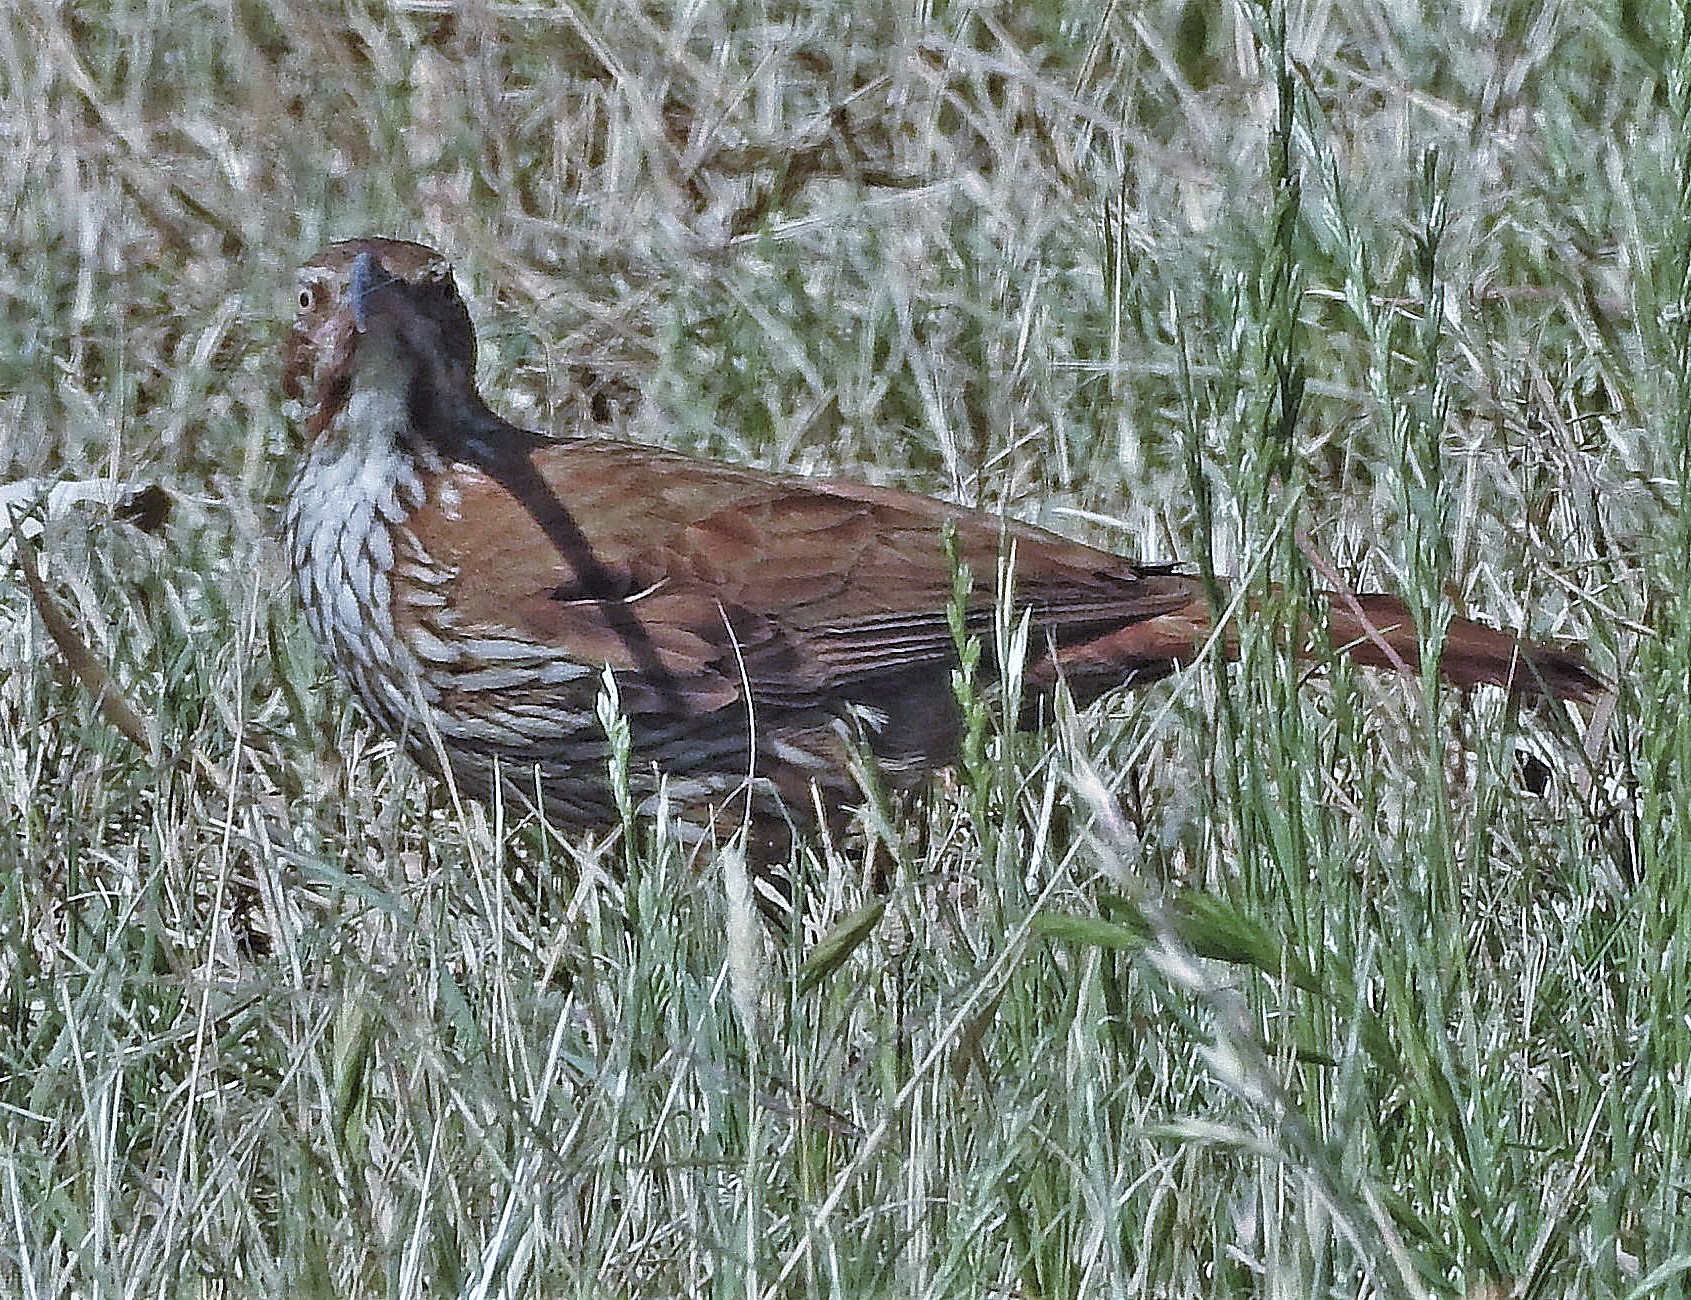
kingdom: Animalia
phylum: Chordata
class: Aves
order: Passeriformes
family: Furnariidae
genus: Drymornis
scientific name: Drymornis bridgesii
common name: Scimitar-billed woodcreeper
